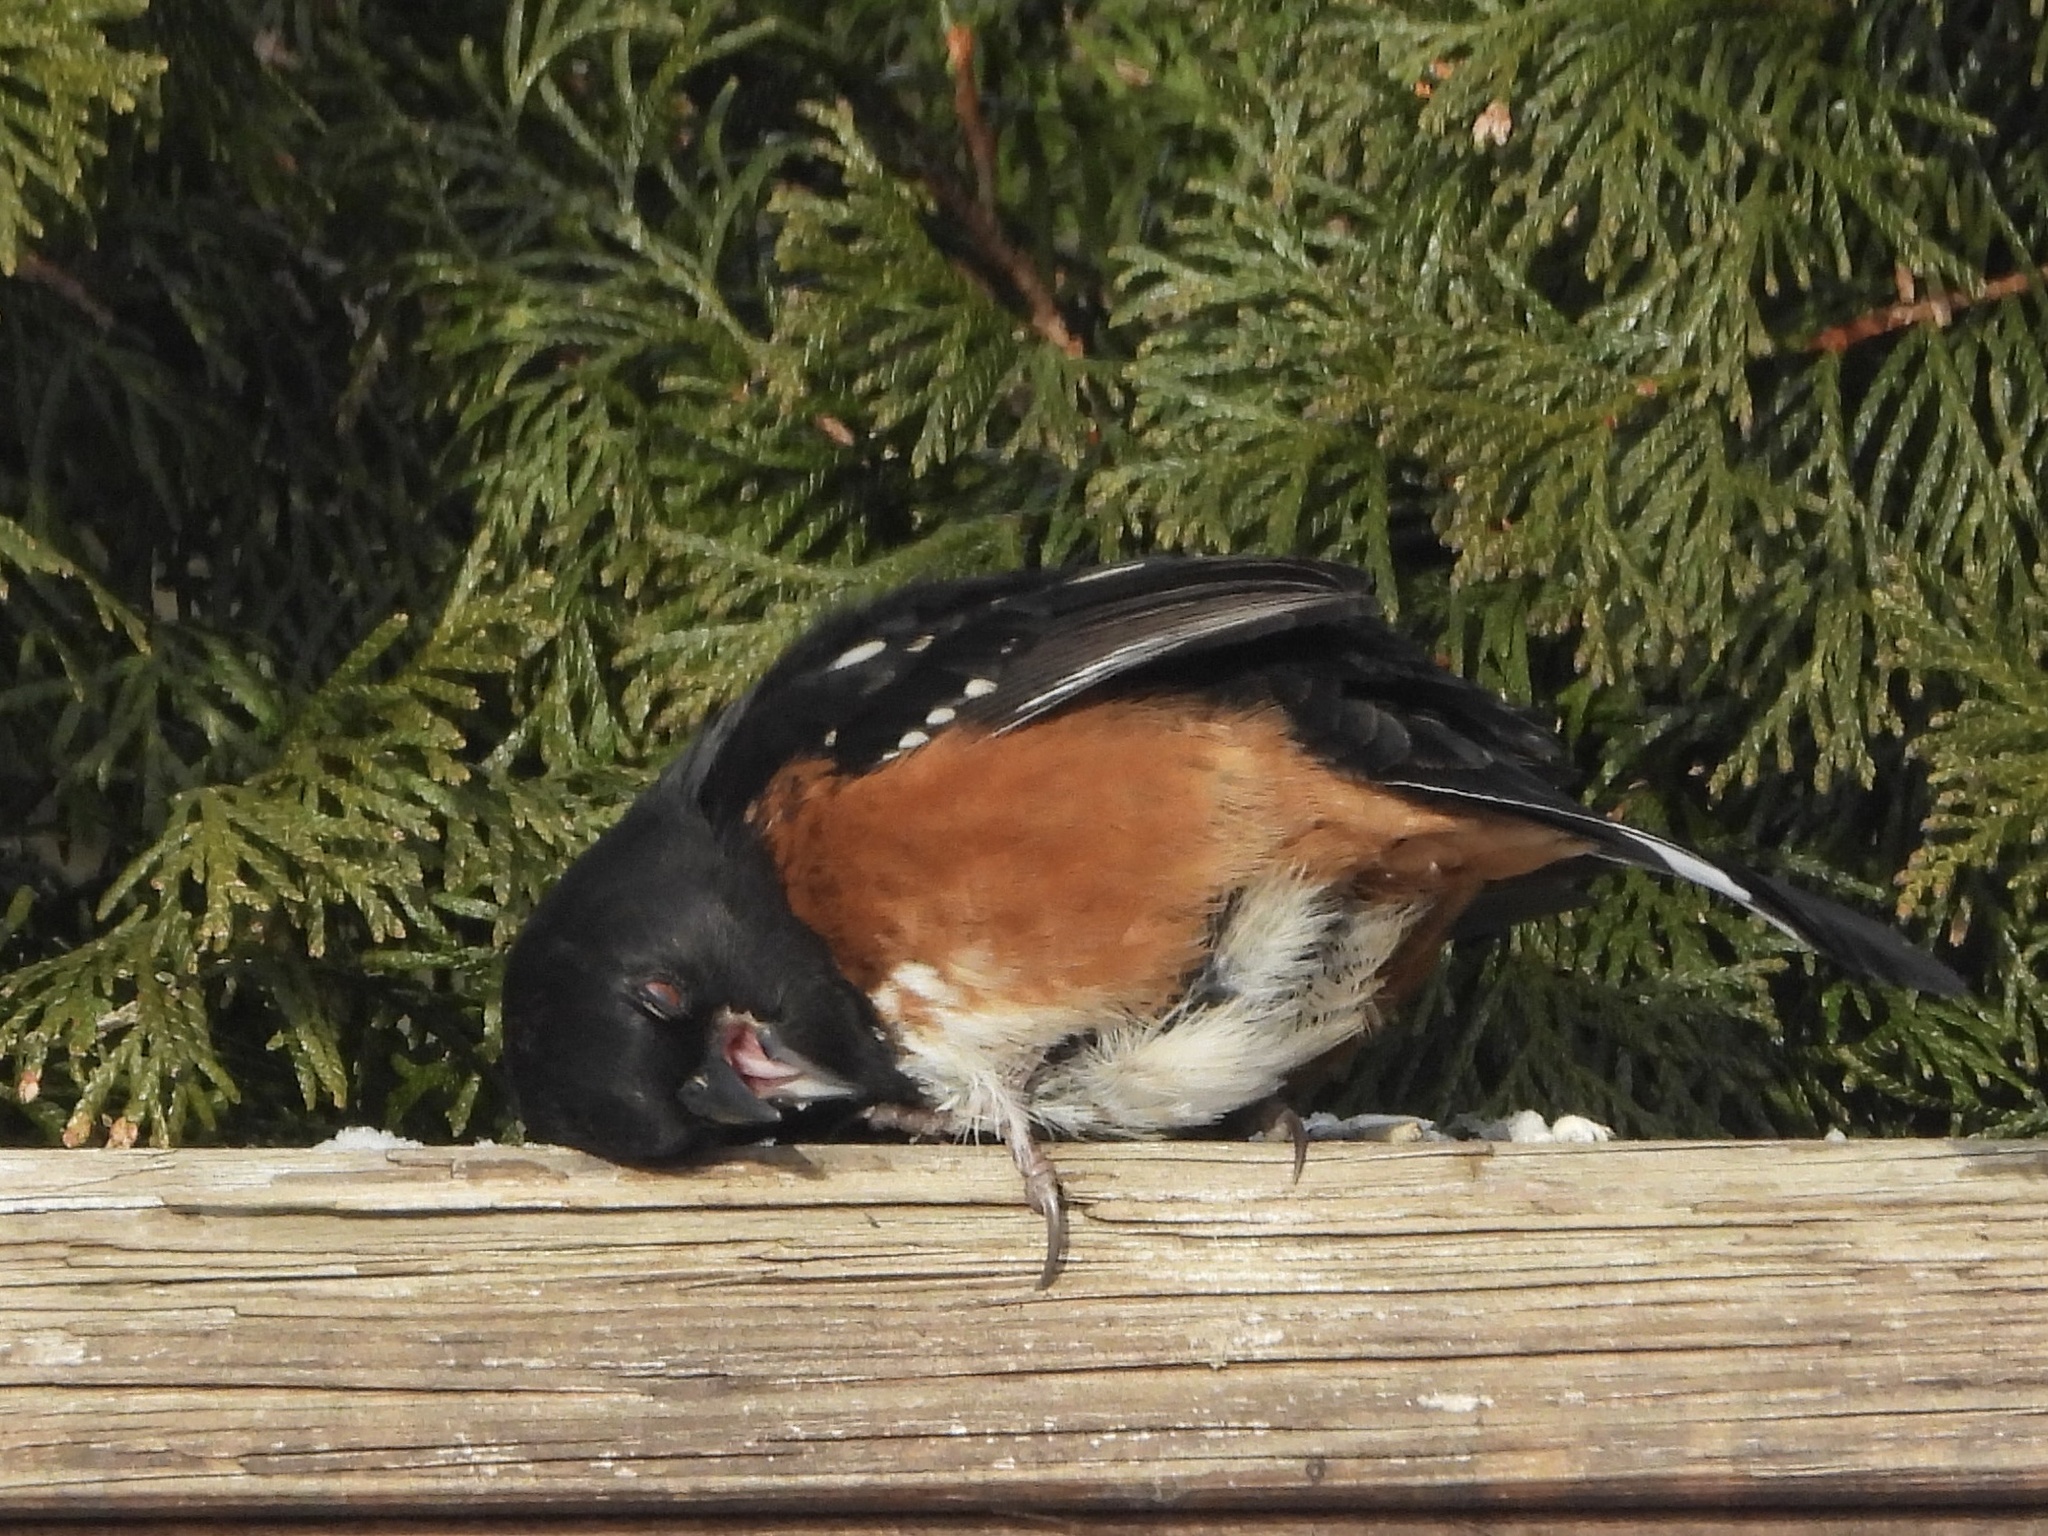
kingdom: Animalia
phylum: Chordata
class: Aves
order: Passeriformes
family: Passerellidae
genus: Pipilo
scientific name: Pipilo maculatus
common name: Spotted towhee
